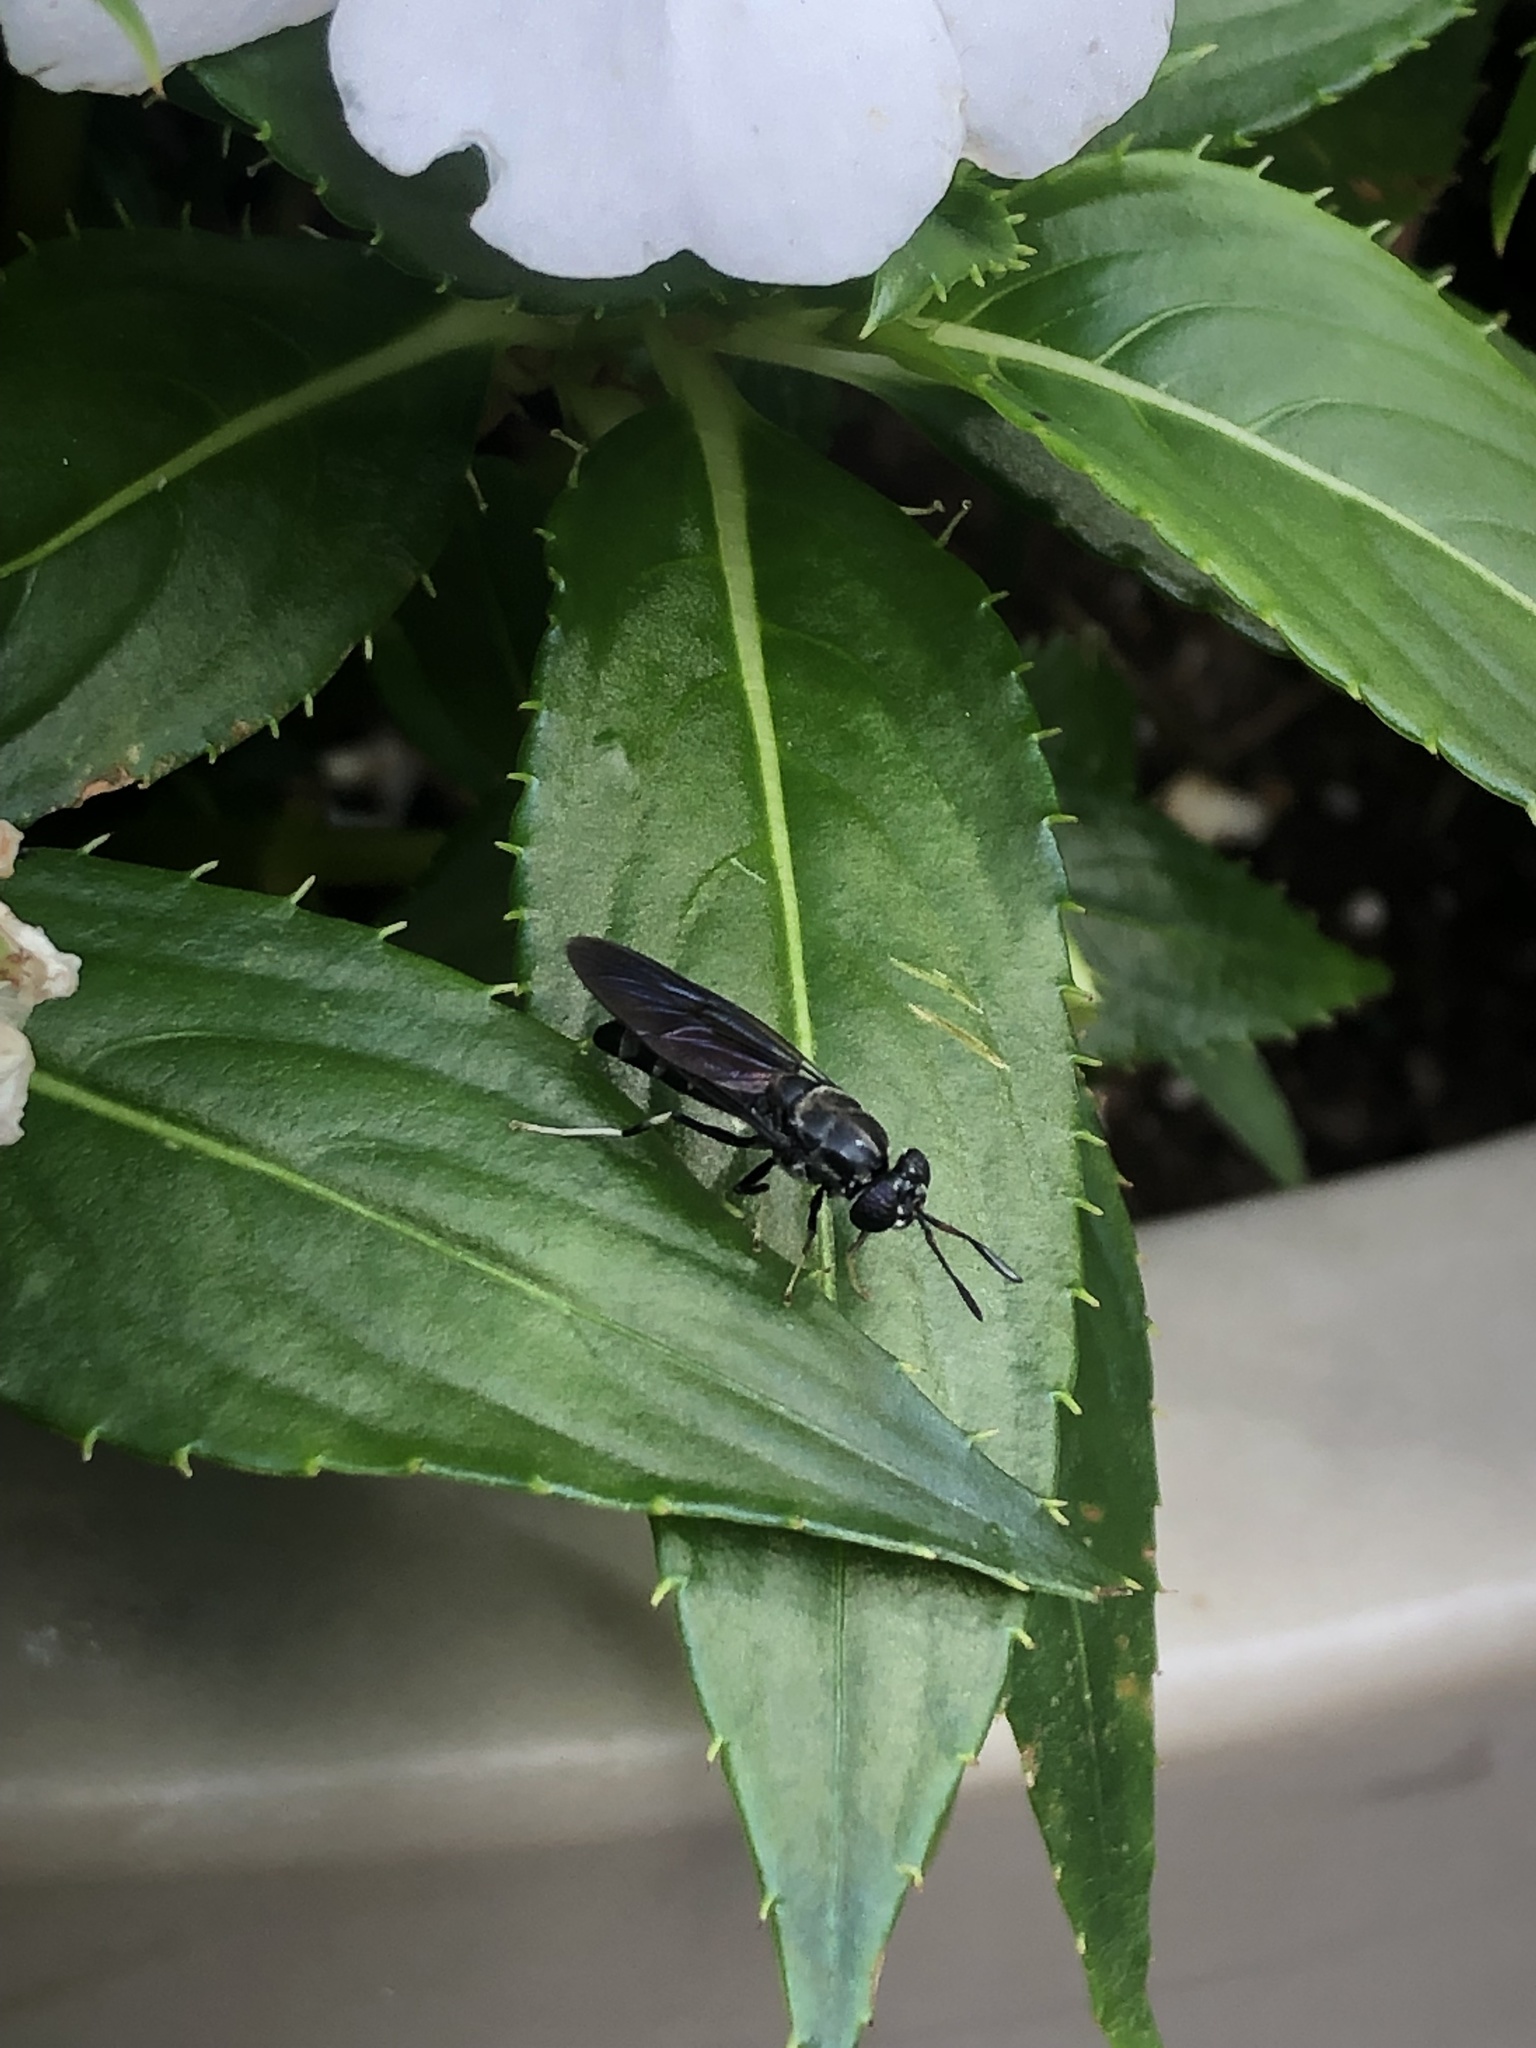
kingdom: Animalia
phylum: Arthropoda
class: Insecta
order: Diptera
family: Stratiomyidae
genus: Hermetia
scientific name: Hermetia illucens
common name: Black soldier fly
